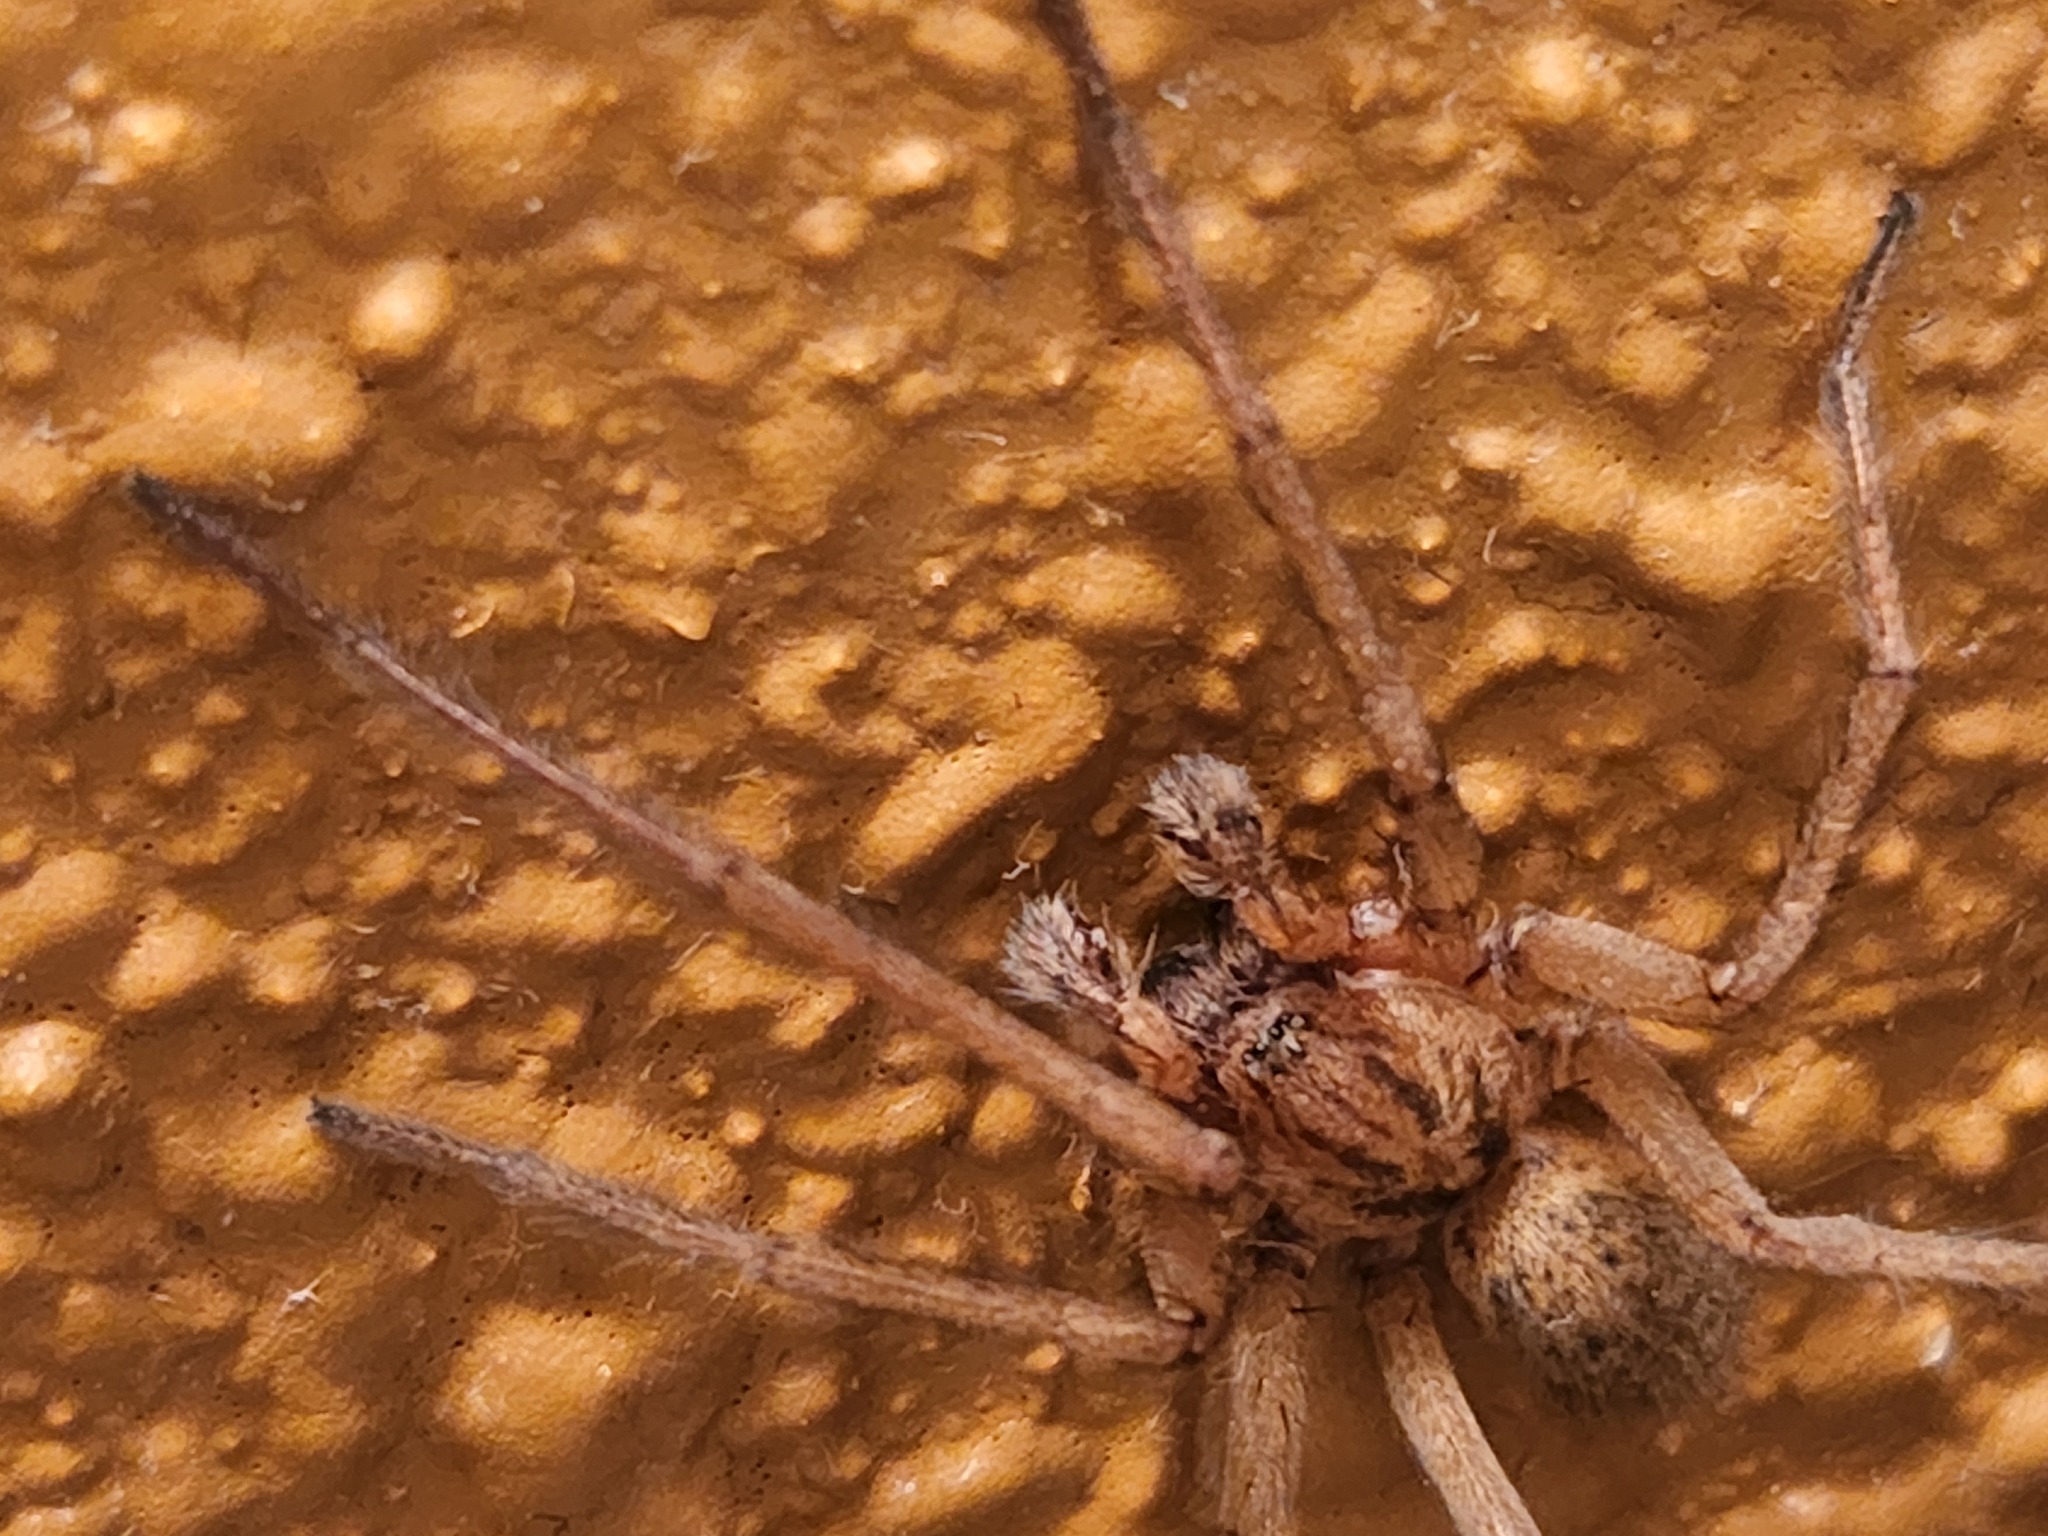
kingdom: Animalia
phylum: Arthropoda
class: Arachnida
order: Araneae
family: Agelenidae
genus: Eratigena
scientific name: Eratigena agrestis
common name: Hobo spider
